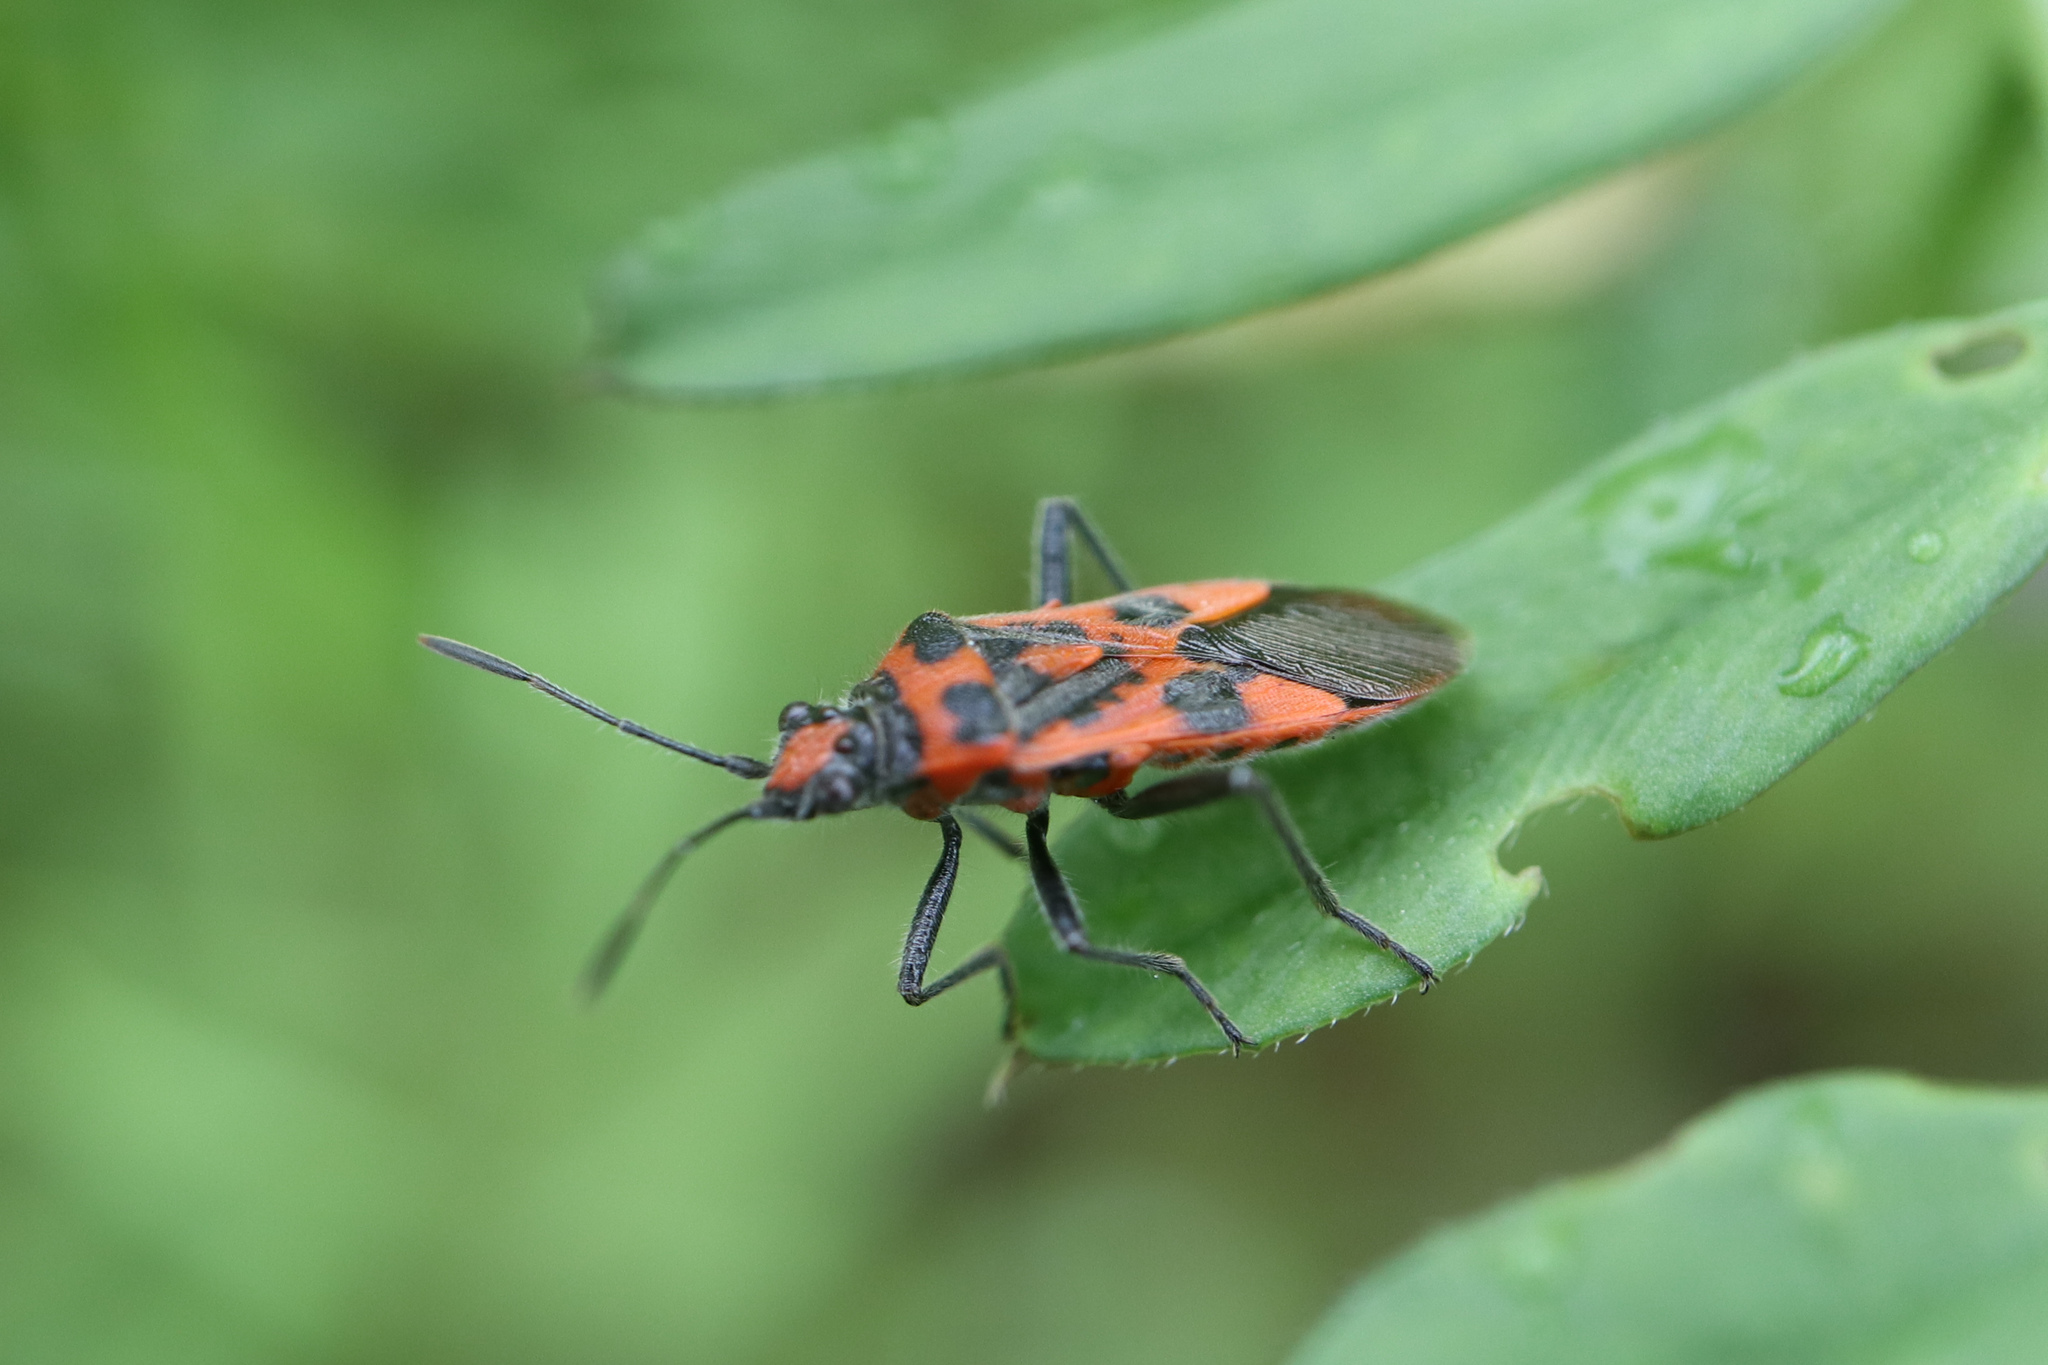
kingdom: Animalia
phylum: Arthropoda
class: Insecta
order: Hemiptera
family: Rhopalidae
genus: Corizus
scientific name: Corizus hyoscyami
